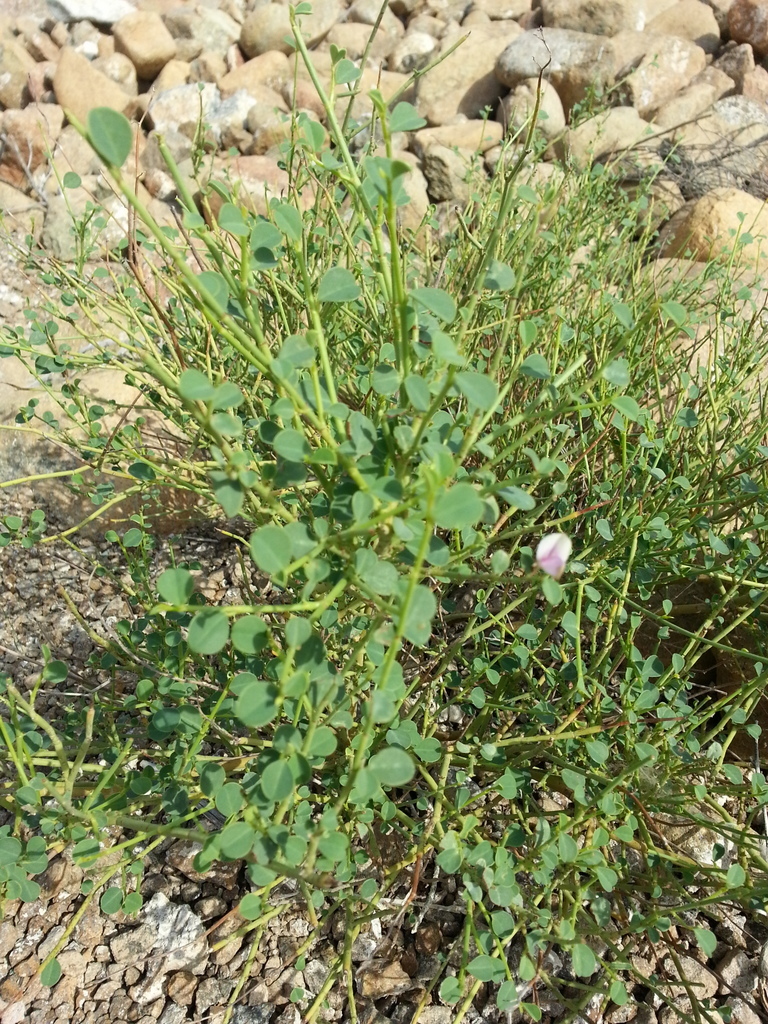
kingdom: Plantae
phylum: Tracheophyta
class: Magnoliopsida
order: Fabales
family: Fabaceae
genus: Taverniera
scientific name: Taverniera glabra
